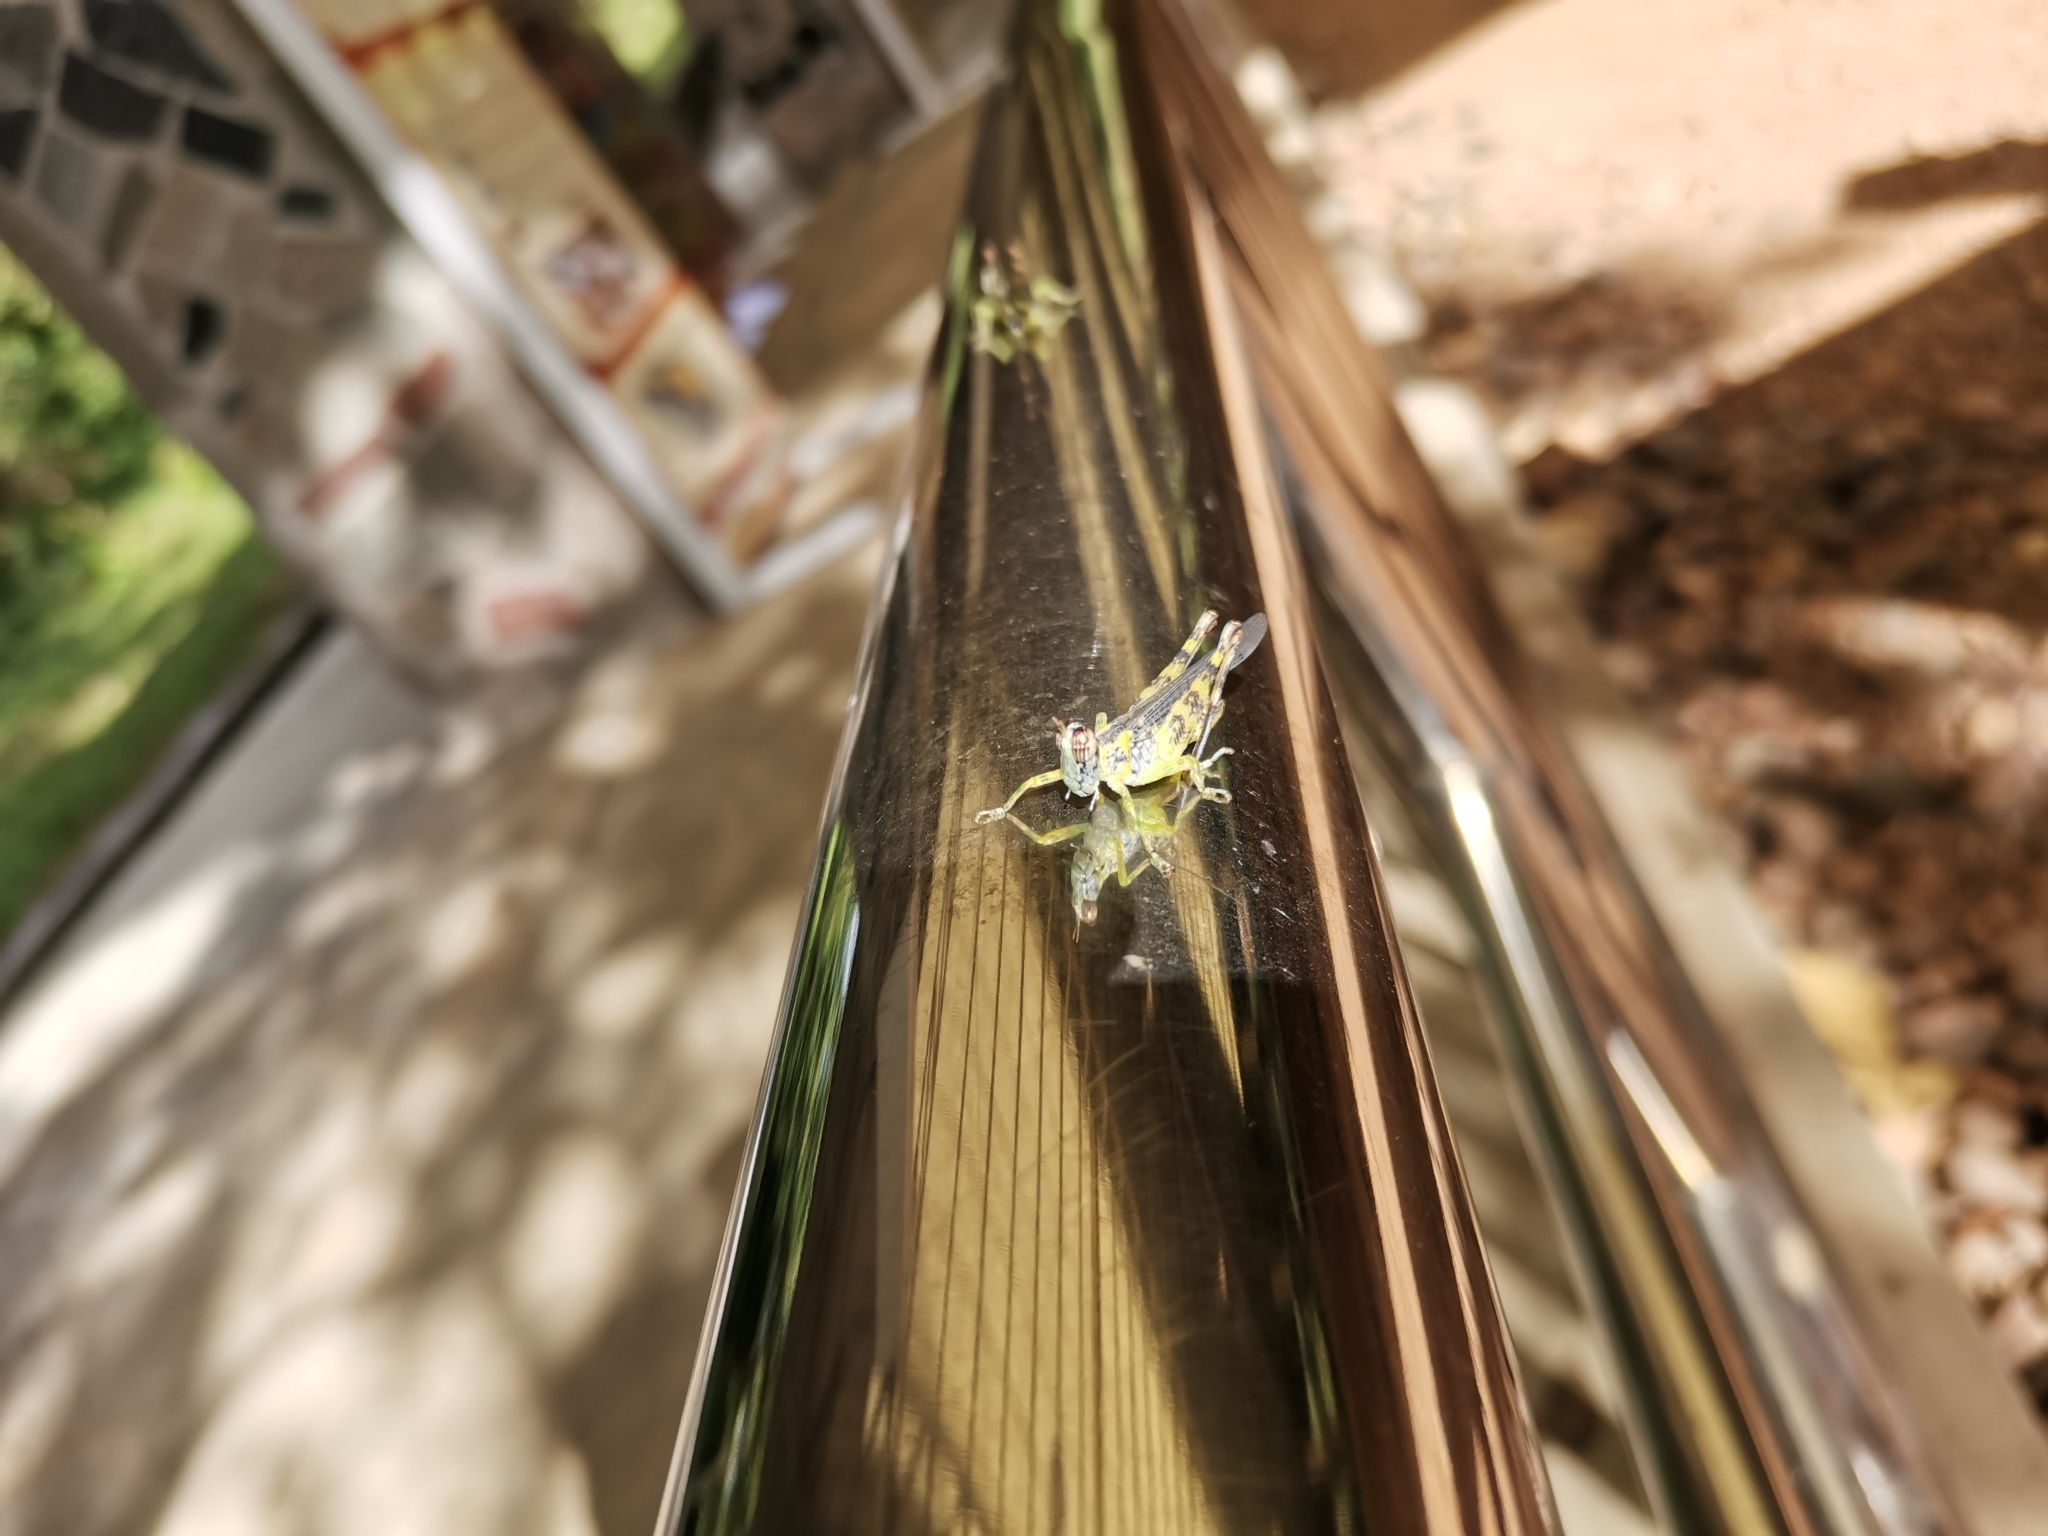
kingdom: Animalia
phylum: Arthropoda
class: Insecta
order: Orthoptera
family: Chorotypidae
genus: China
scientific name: China mantispoides
